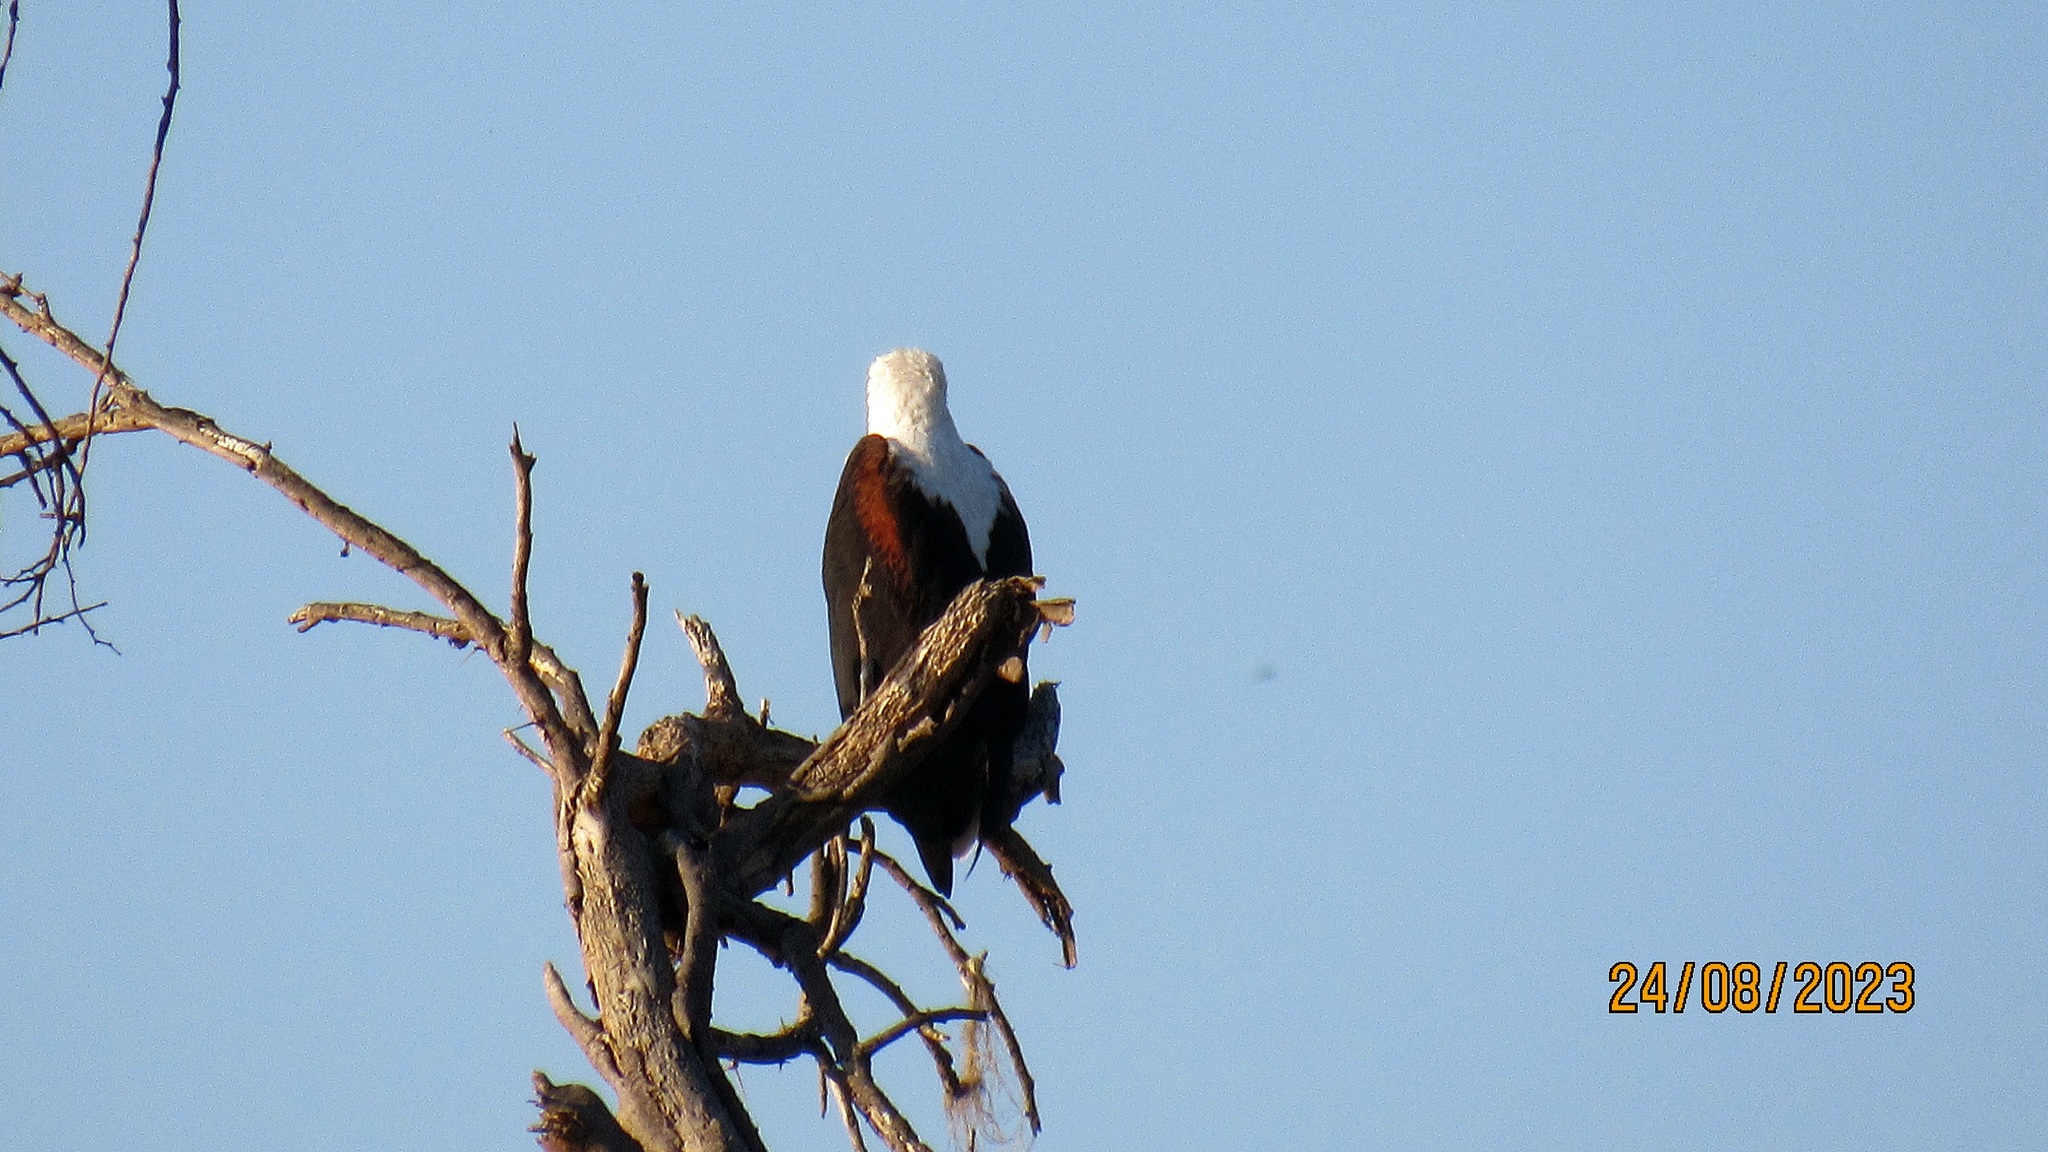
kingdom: Animalia
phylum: Chordata
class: Aves
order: Accipitriformes
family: Accipitridae
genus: Haliaeetus
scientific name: Haliaeetus vocifer
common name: African fish eagle
